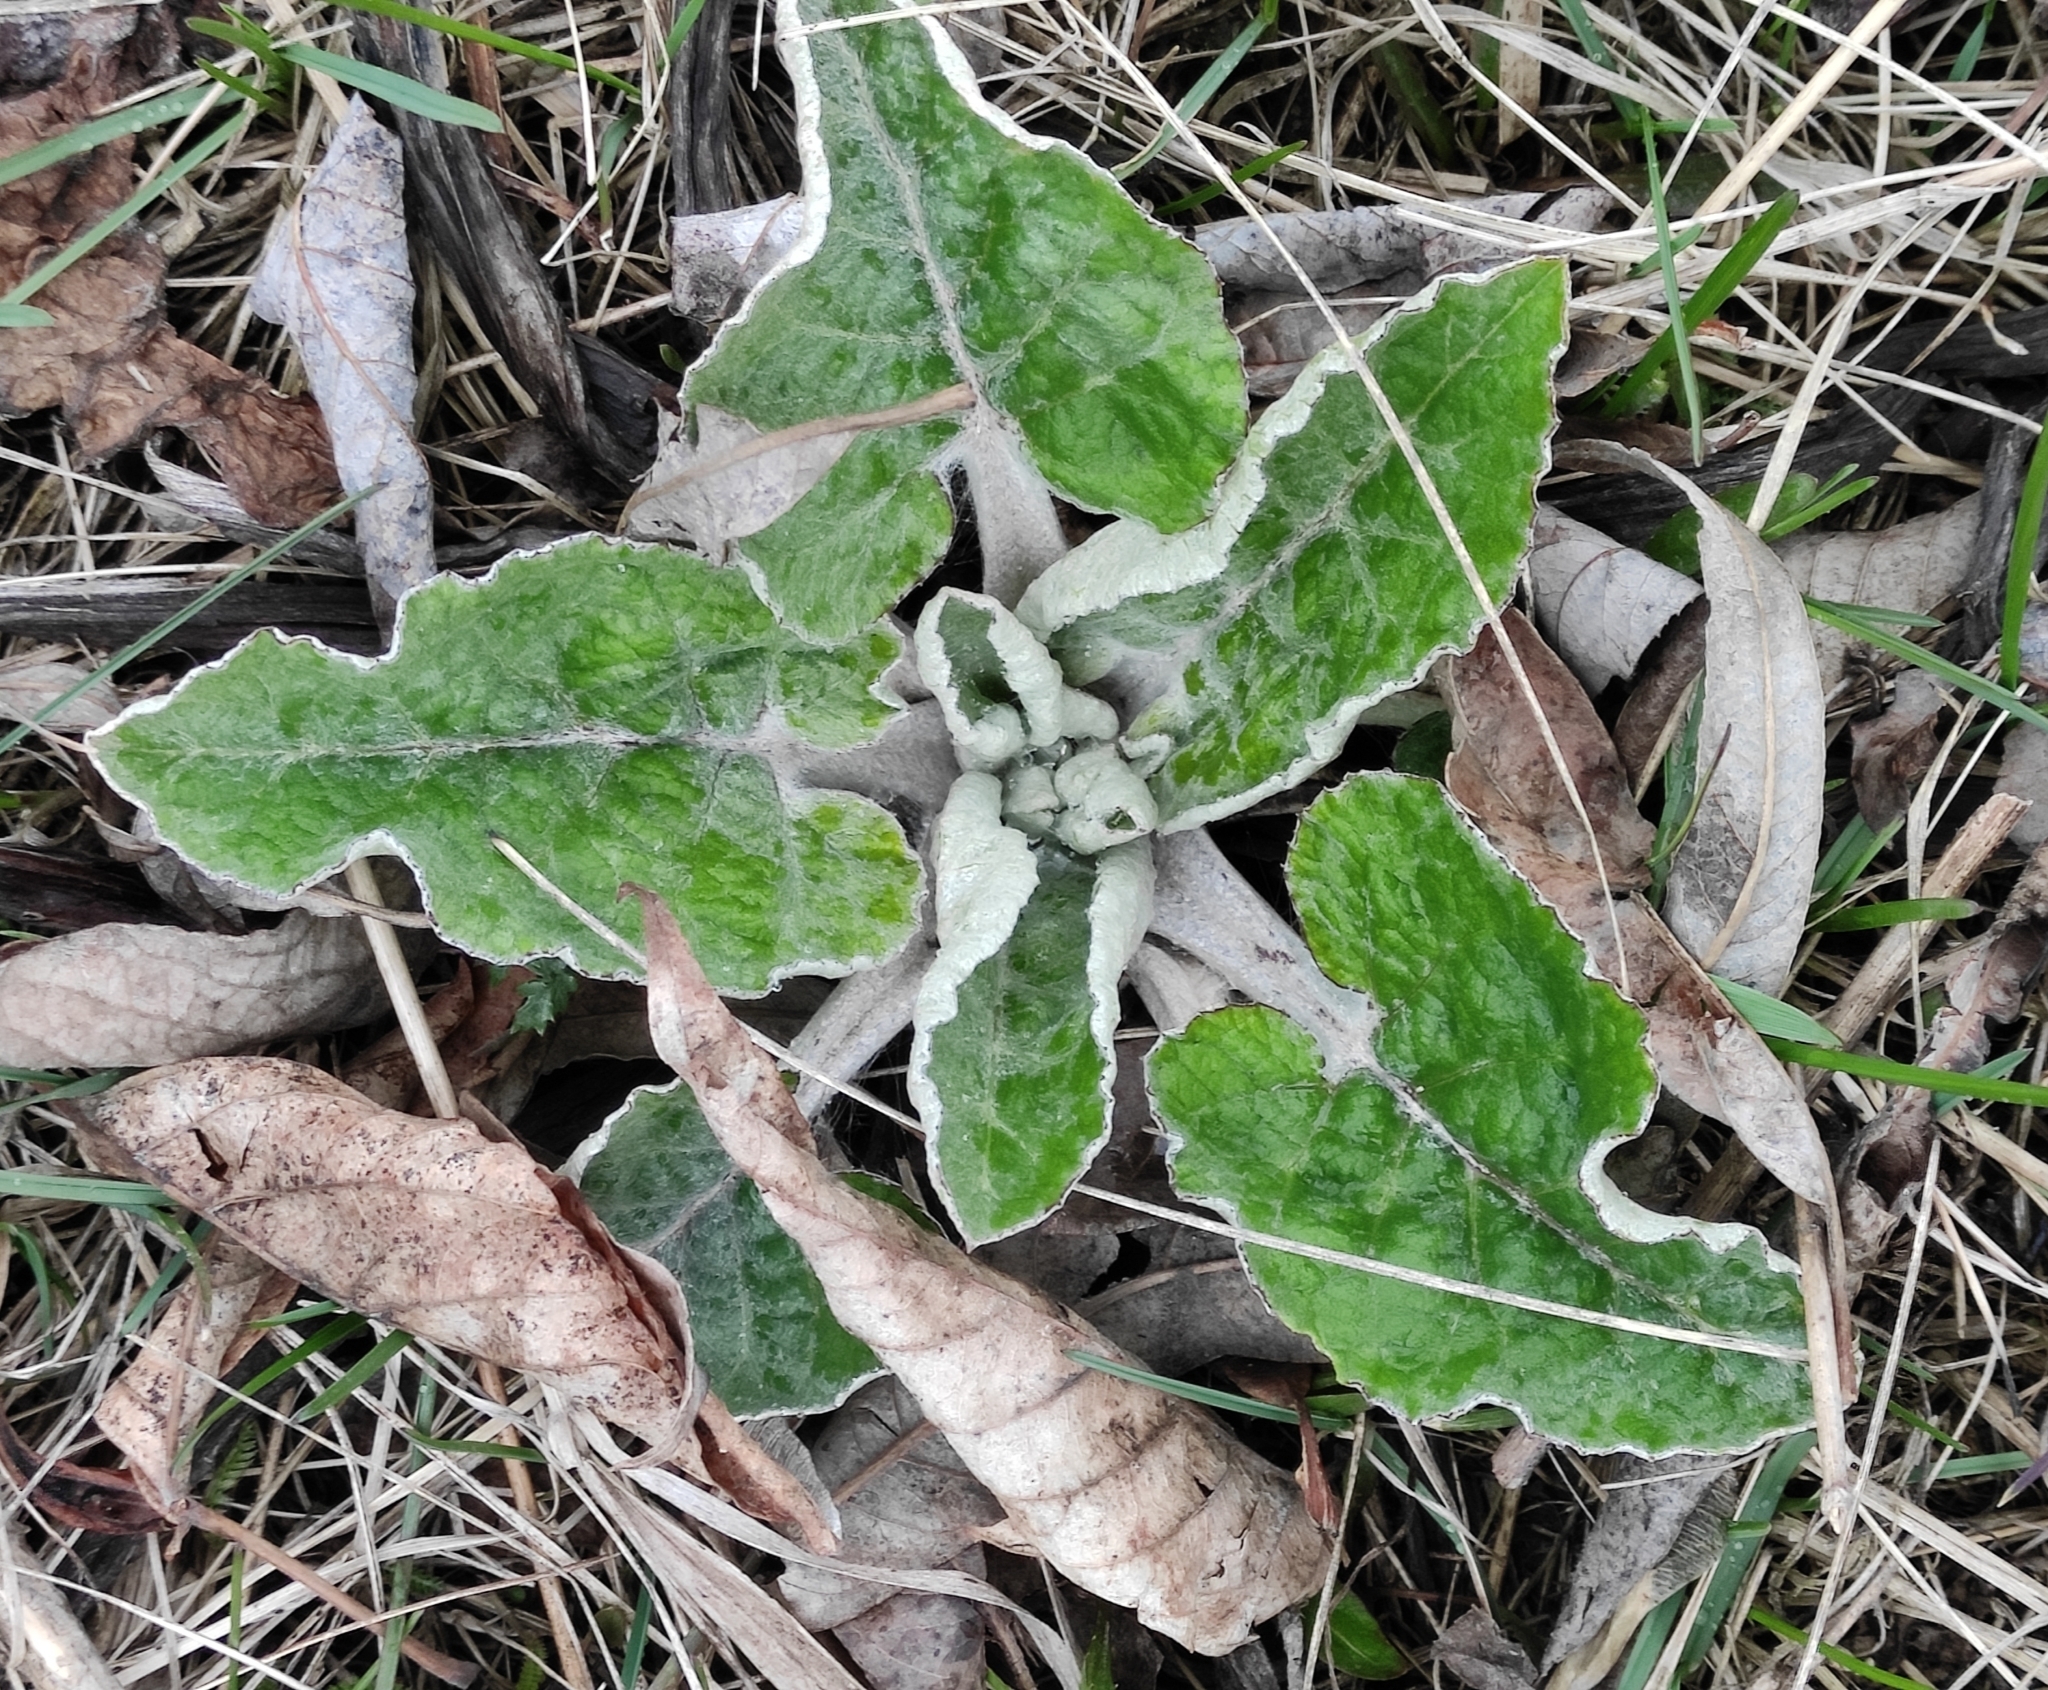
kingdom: Plantae
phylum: Tracheophyta
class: Magnoliopsida
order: Asterales
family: Asteraceae
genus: Arctium
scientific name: Arctium tomentosum
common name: Woolly burdock
